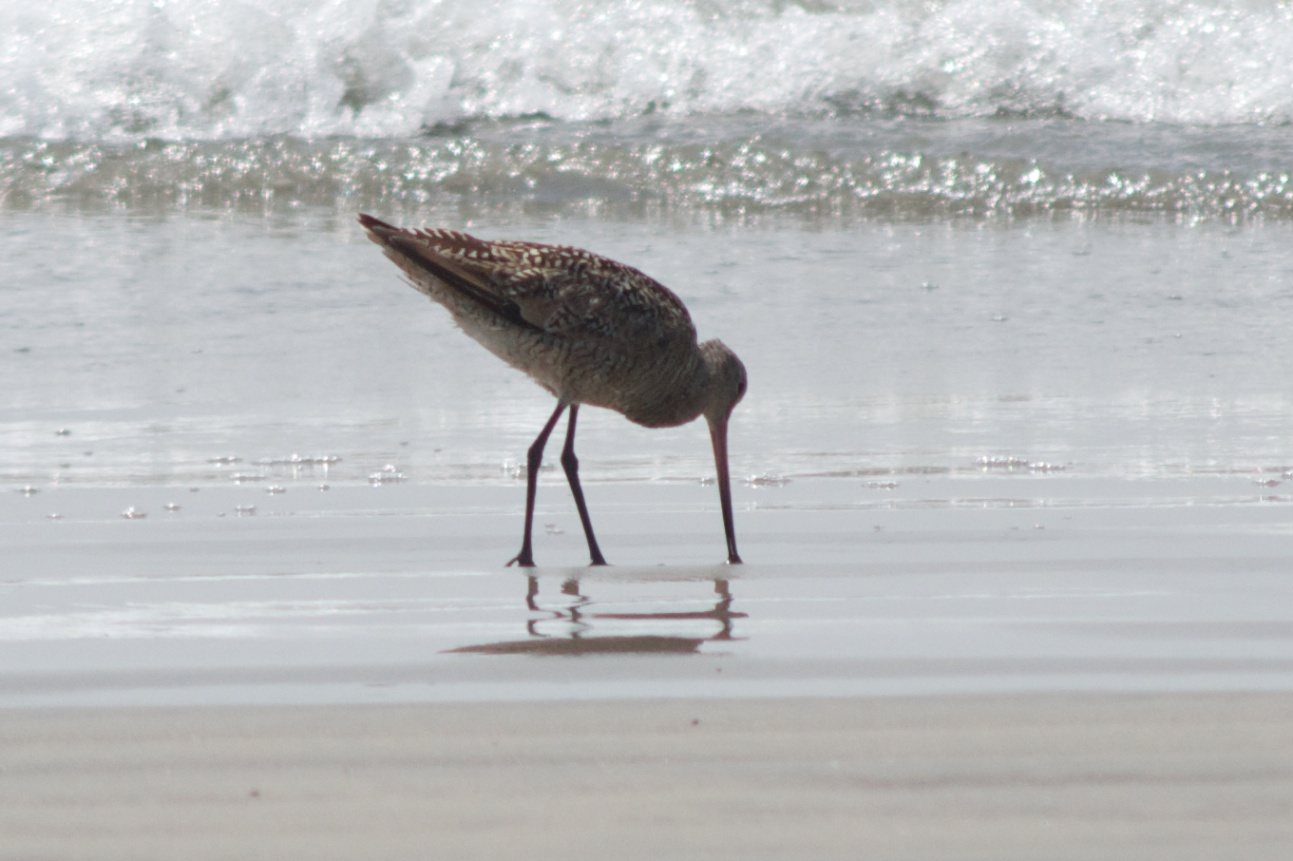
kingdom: Animalia
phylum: Chordata
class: Aves
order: Charadriiformes
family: Scolopacidae
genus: Limosa
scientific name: Limosa fedoa
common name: Marbled godwit
